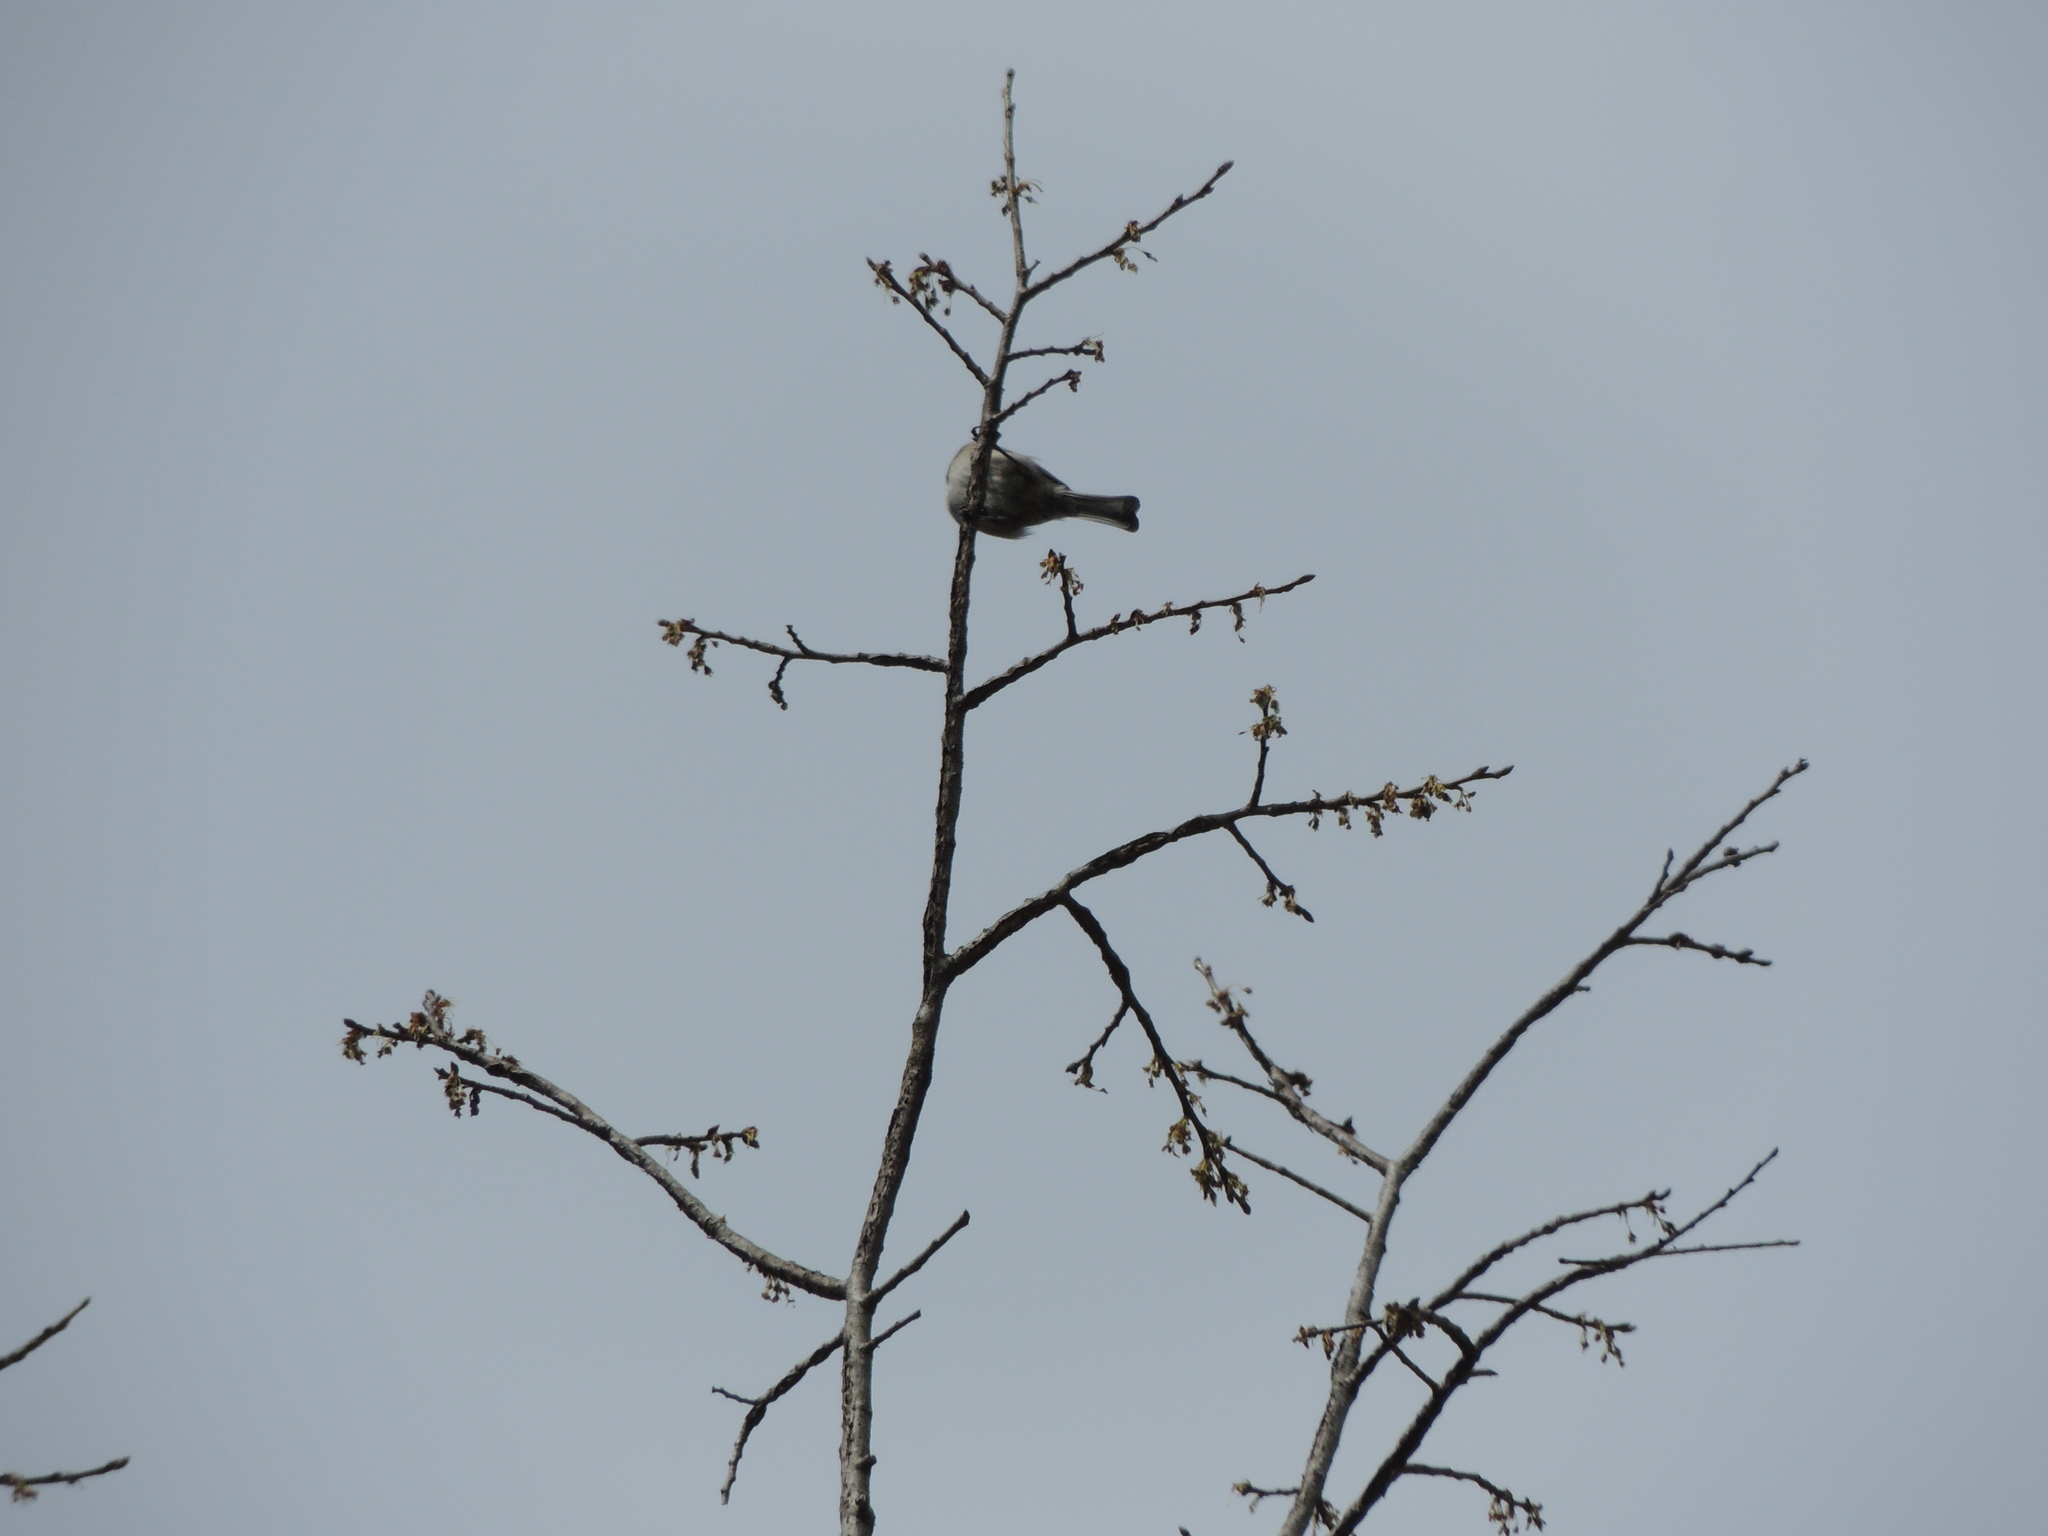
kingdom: Animalia
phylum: Chordata
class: Aves
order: Passeriformes
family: Paridae
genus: Poecile
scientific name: Poecile carolinensis
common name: Carolina chickadee
